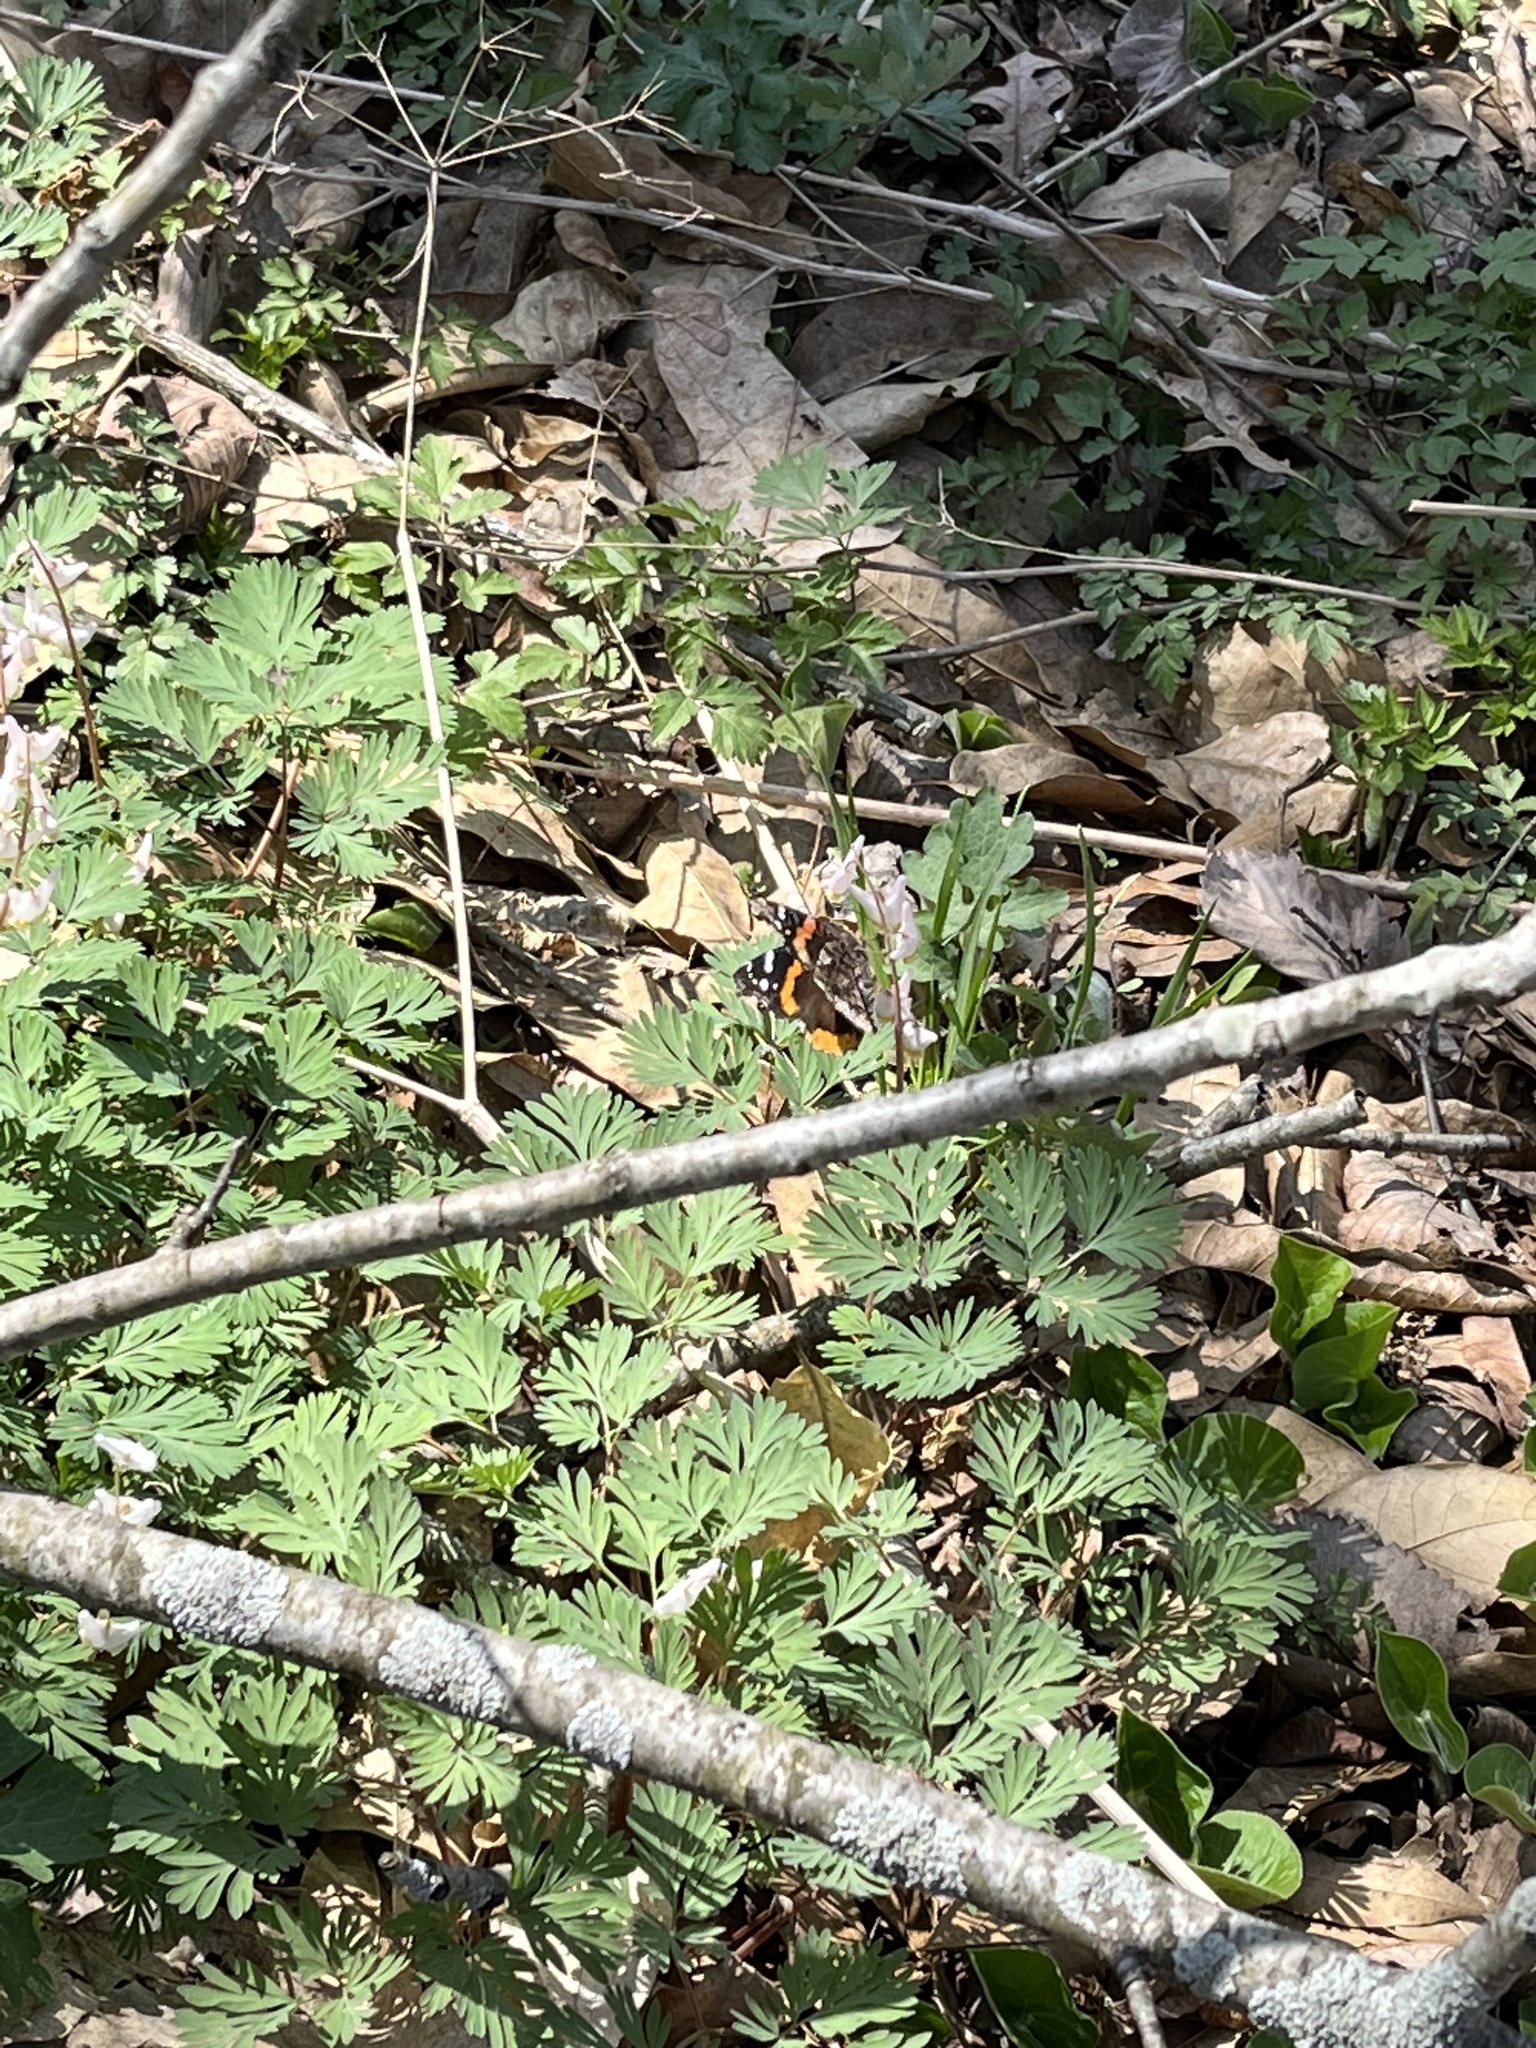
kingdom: Animalia
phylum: Arthropoda
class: Insecta
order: Lepidoptera
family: Nymphalidae
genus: Vanessa
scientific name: Vanessa atalanta
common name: Red admiral
